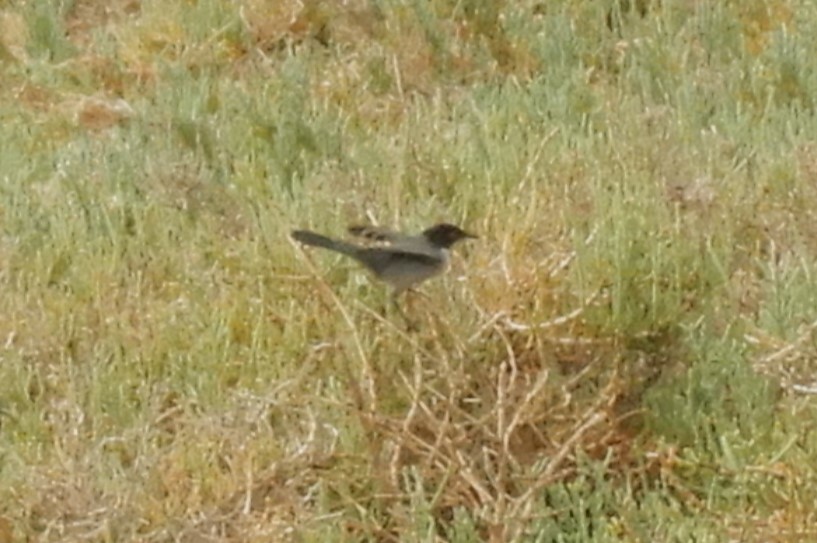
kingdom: Animalia
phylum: Chordata
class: Aves
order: Passeriformes
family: Sylviidae
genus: Curruca
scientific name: Curruca melanocephala
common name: Sardinian warbler
